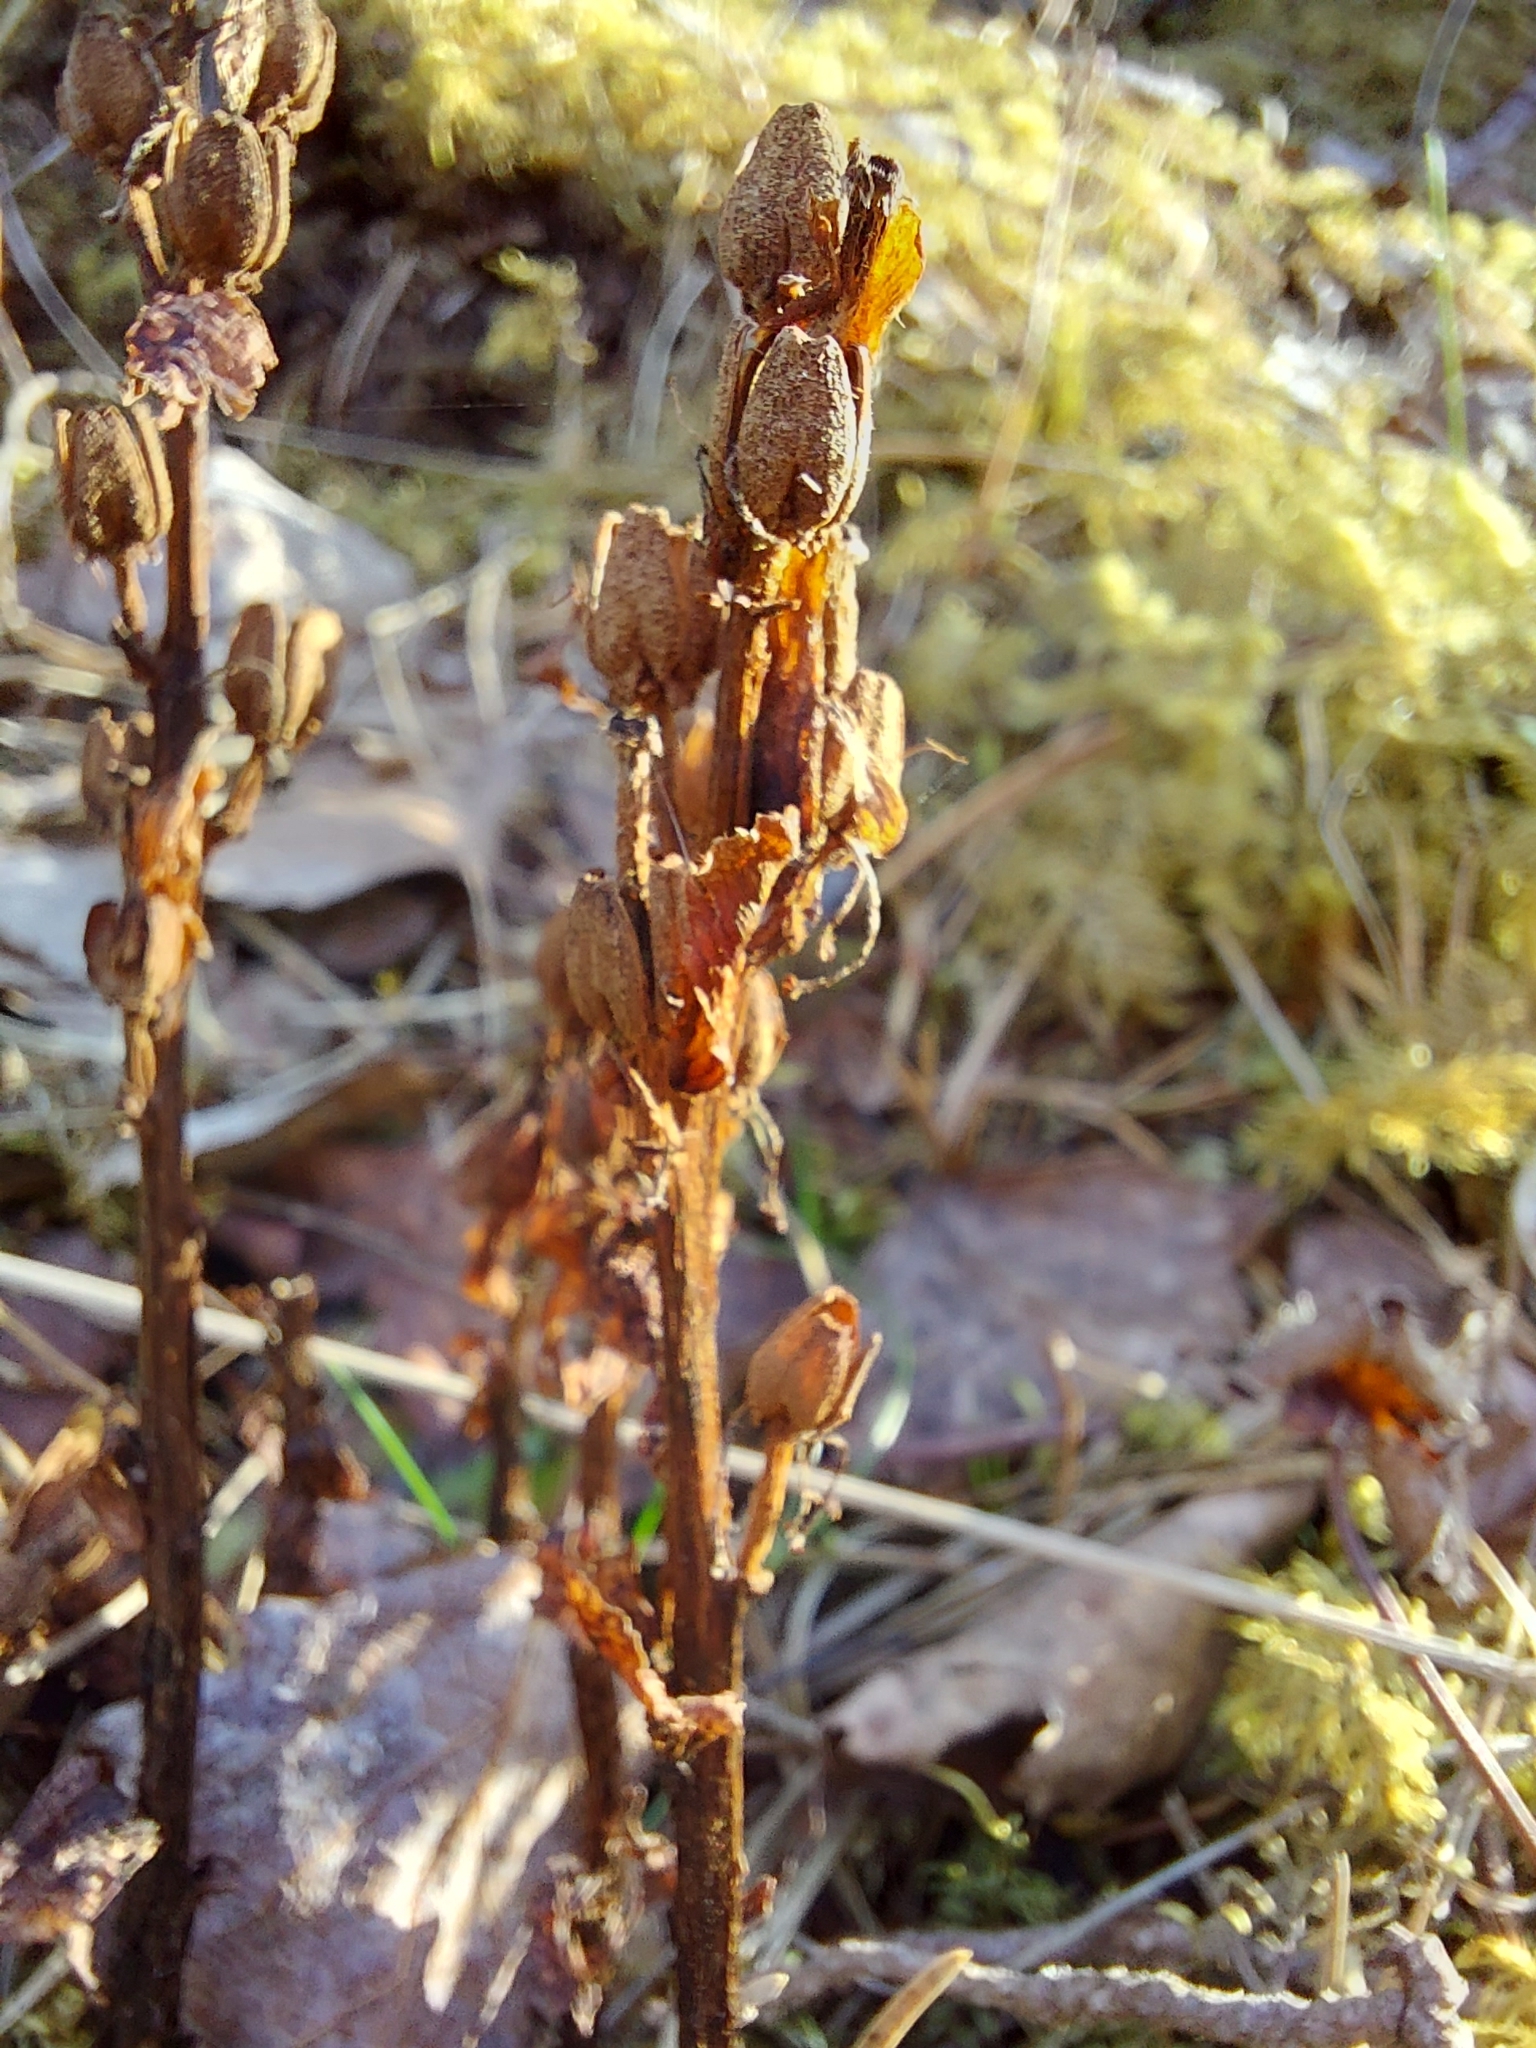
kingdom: Plantae
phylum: Tracheophyta
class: Magnoliopsida
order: Ericales
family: Ericaceae
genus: Hypopitys
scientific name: Hypopitys monotropa
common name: Yellow bird's-nest
